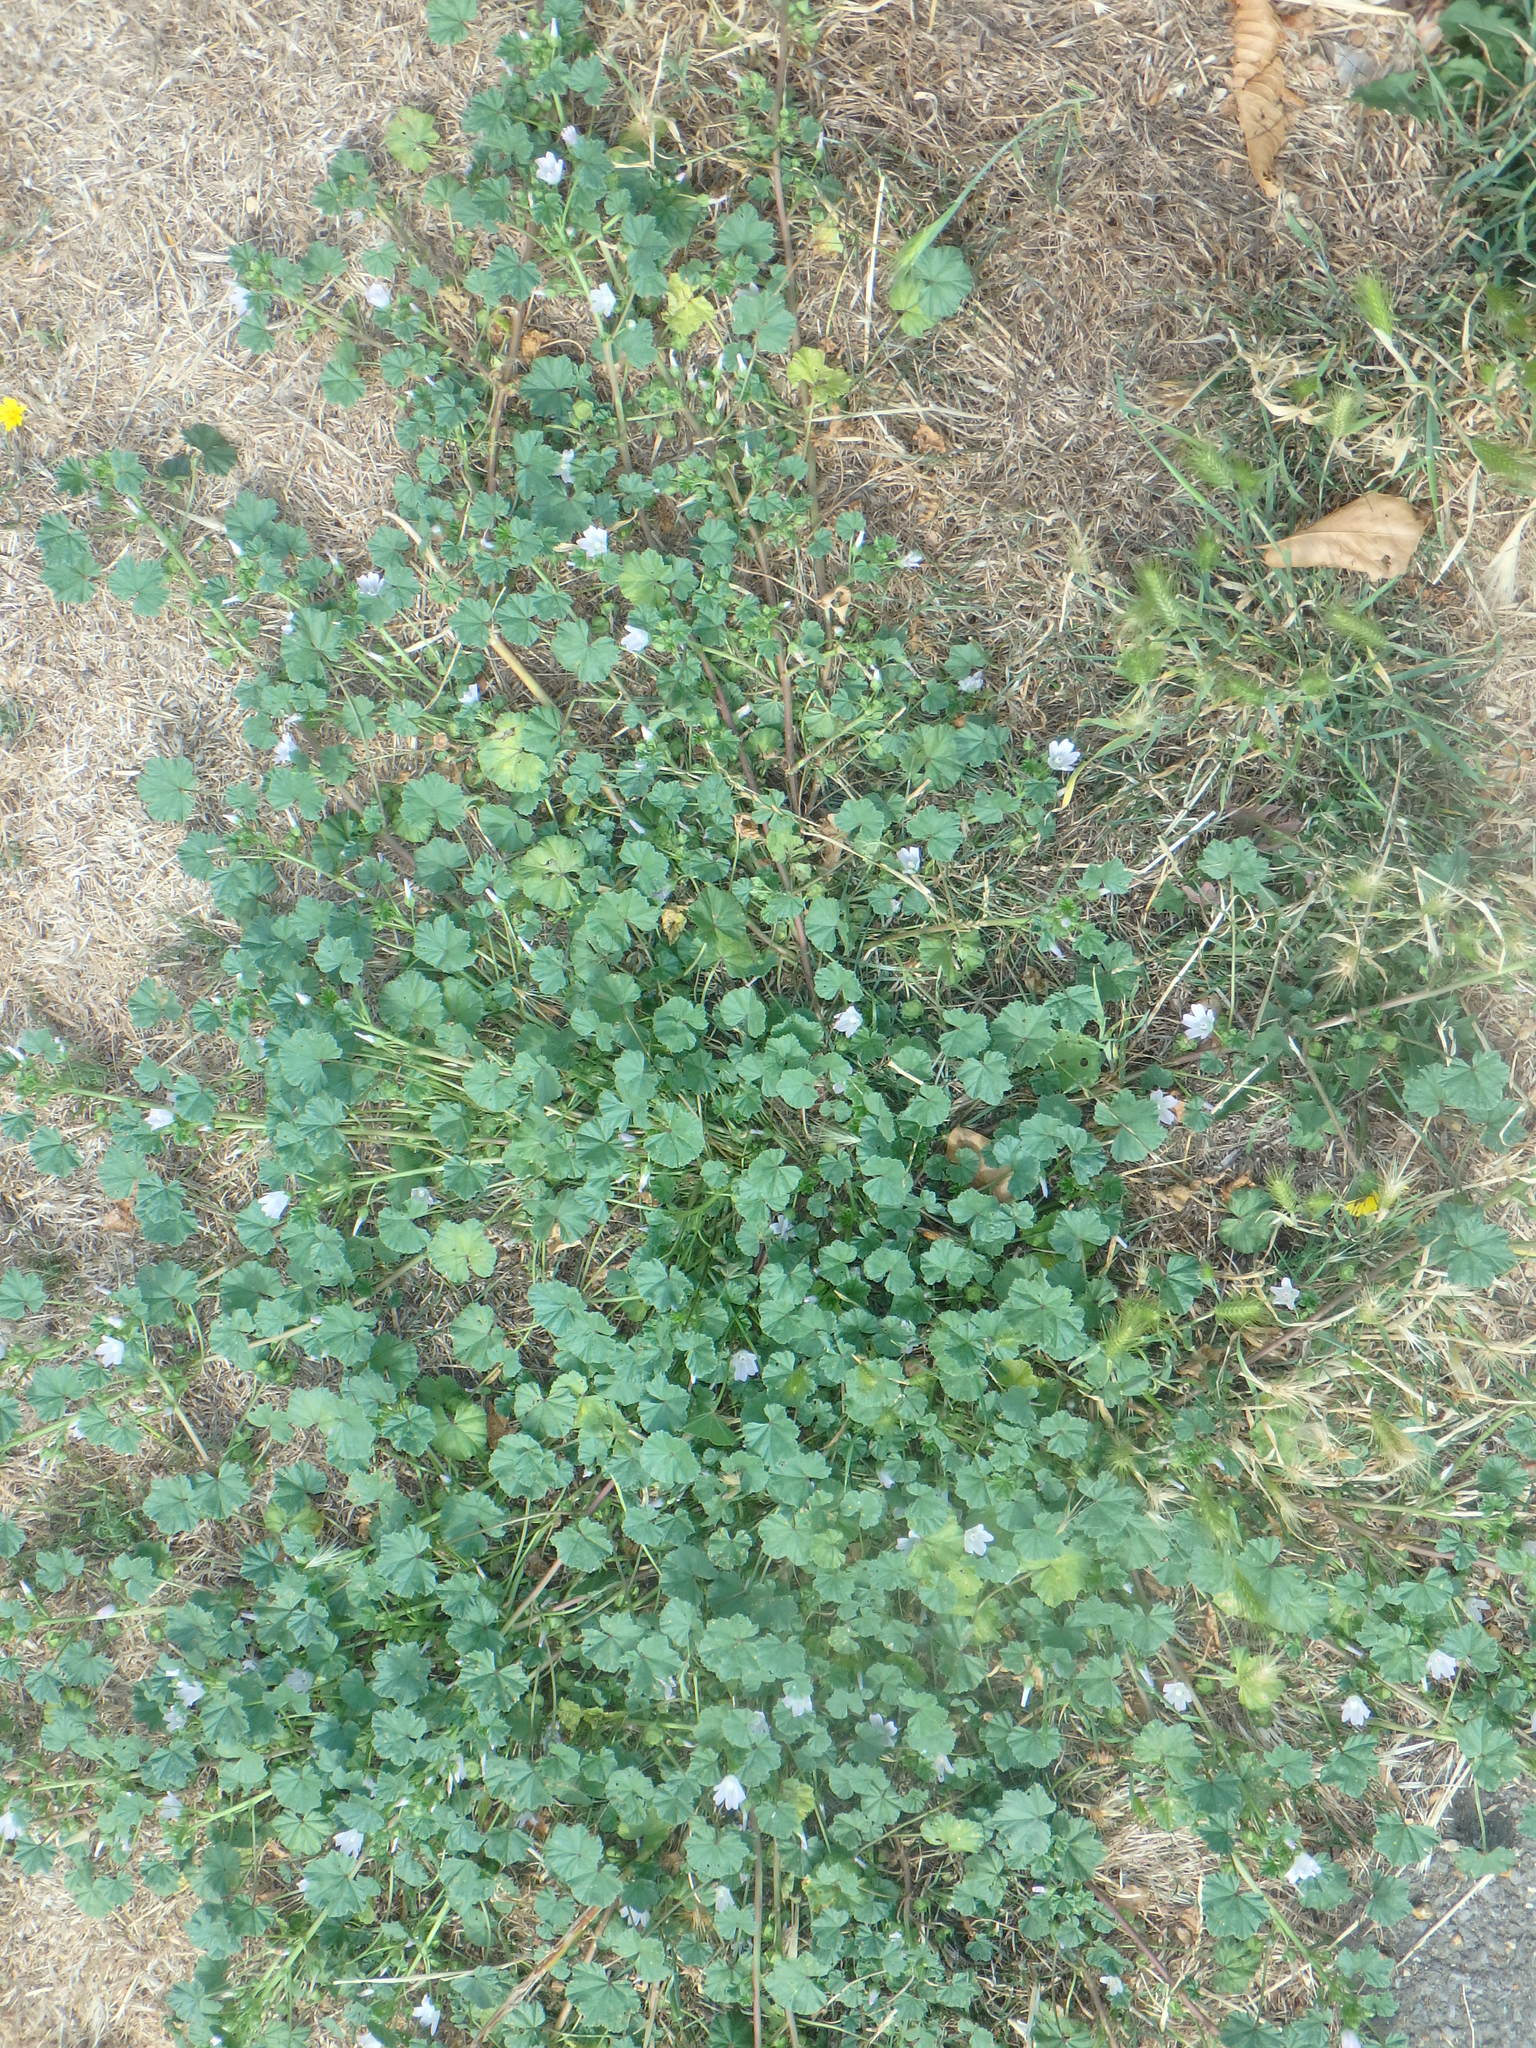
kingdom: Plantae
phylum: Tracheophyta
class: Magnoliopsida
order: Malvales
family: Malvaceae
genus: Malva
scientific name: Malva neglecta
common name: Common mallow
